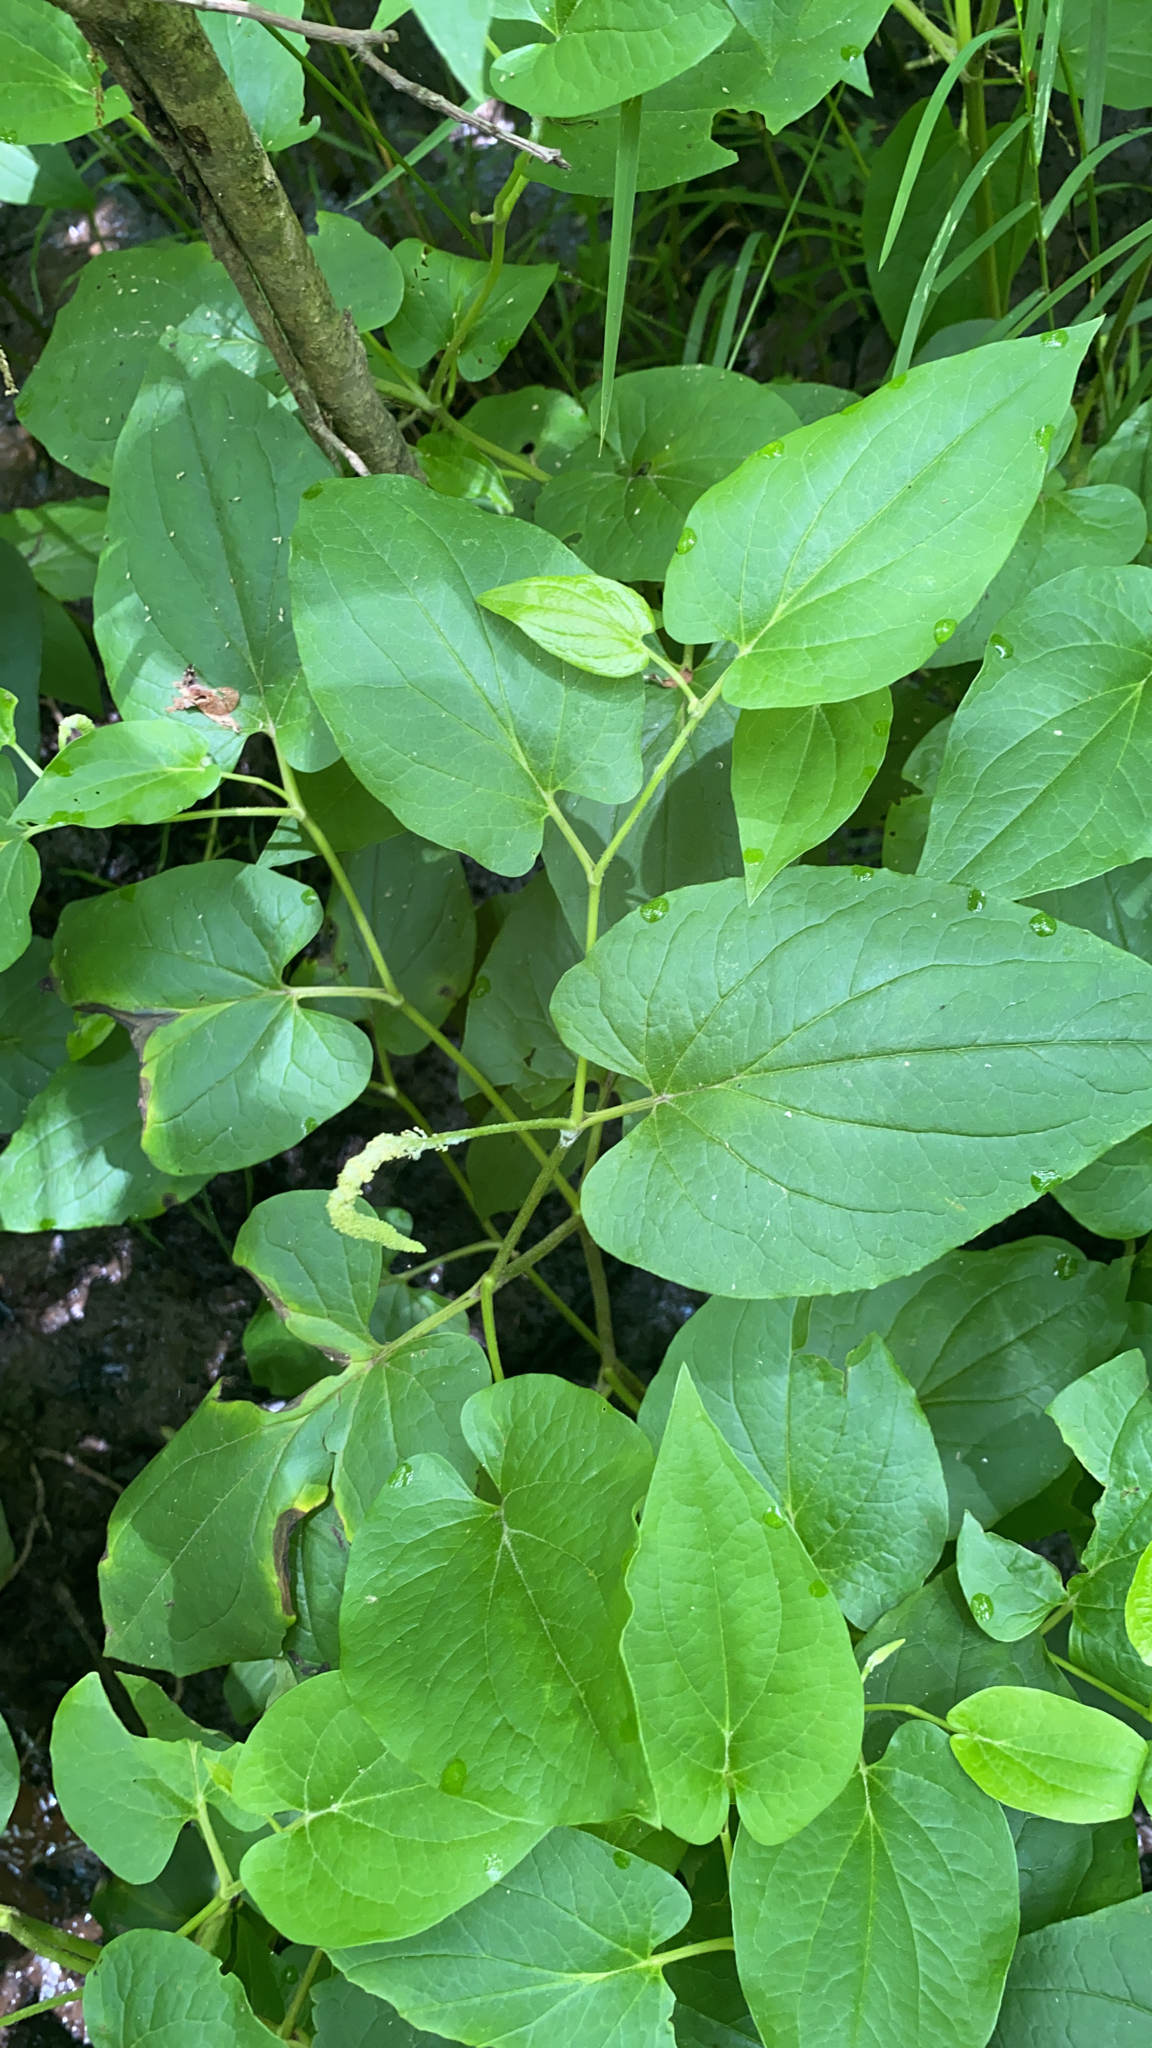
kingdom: Plantae
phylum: Tracheophyta
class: Magnoliopsida
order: Piperales
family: Saururaceae
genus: Saururus
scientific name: Saururus cernuus
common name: Lizard's-tail
